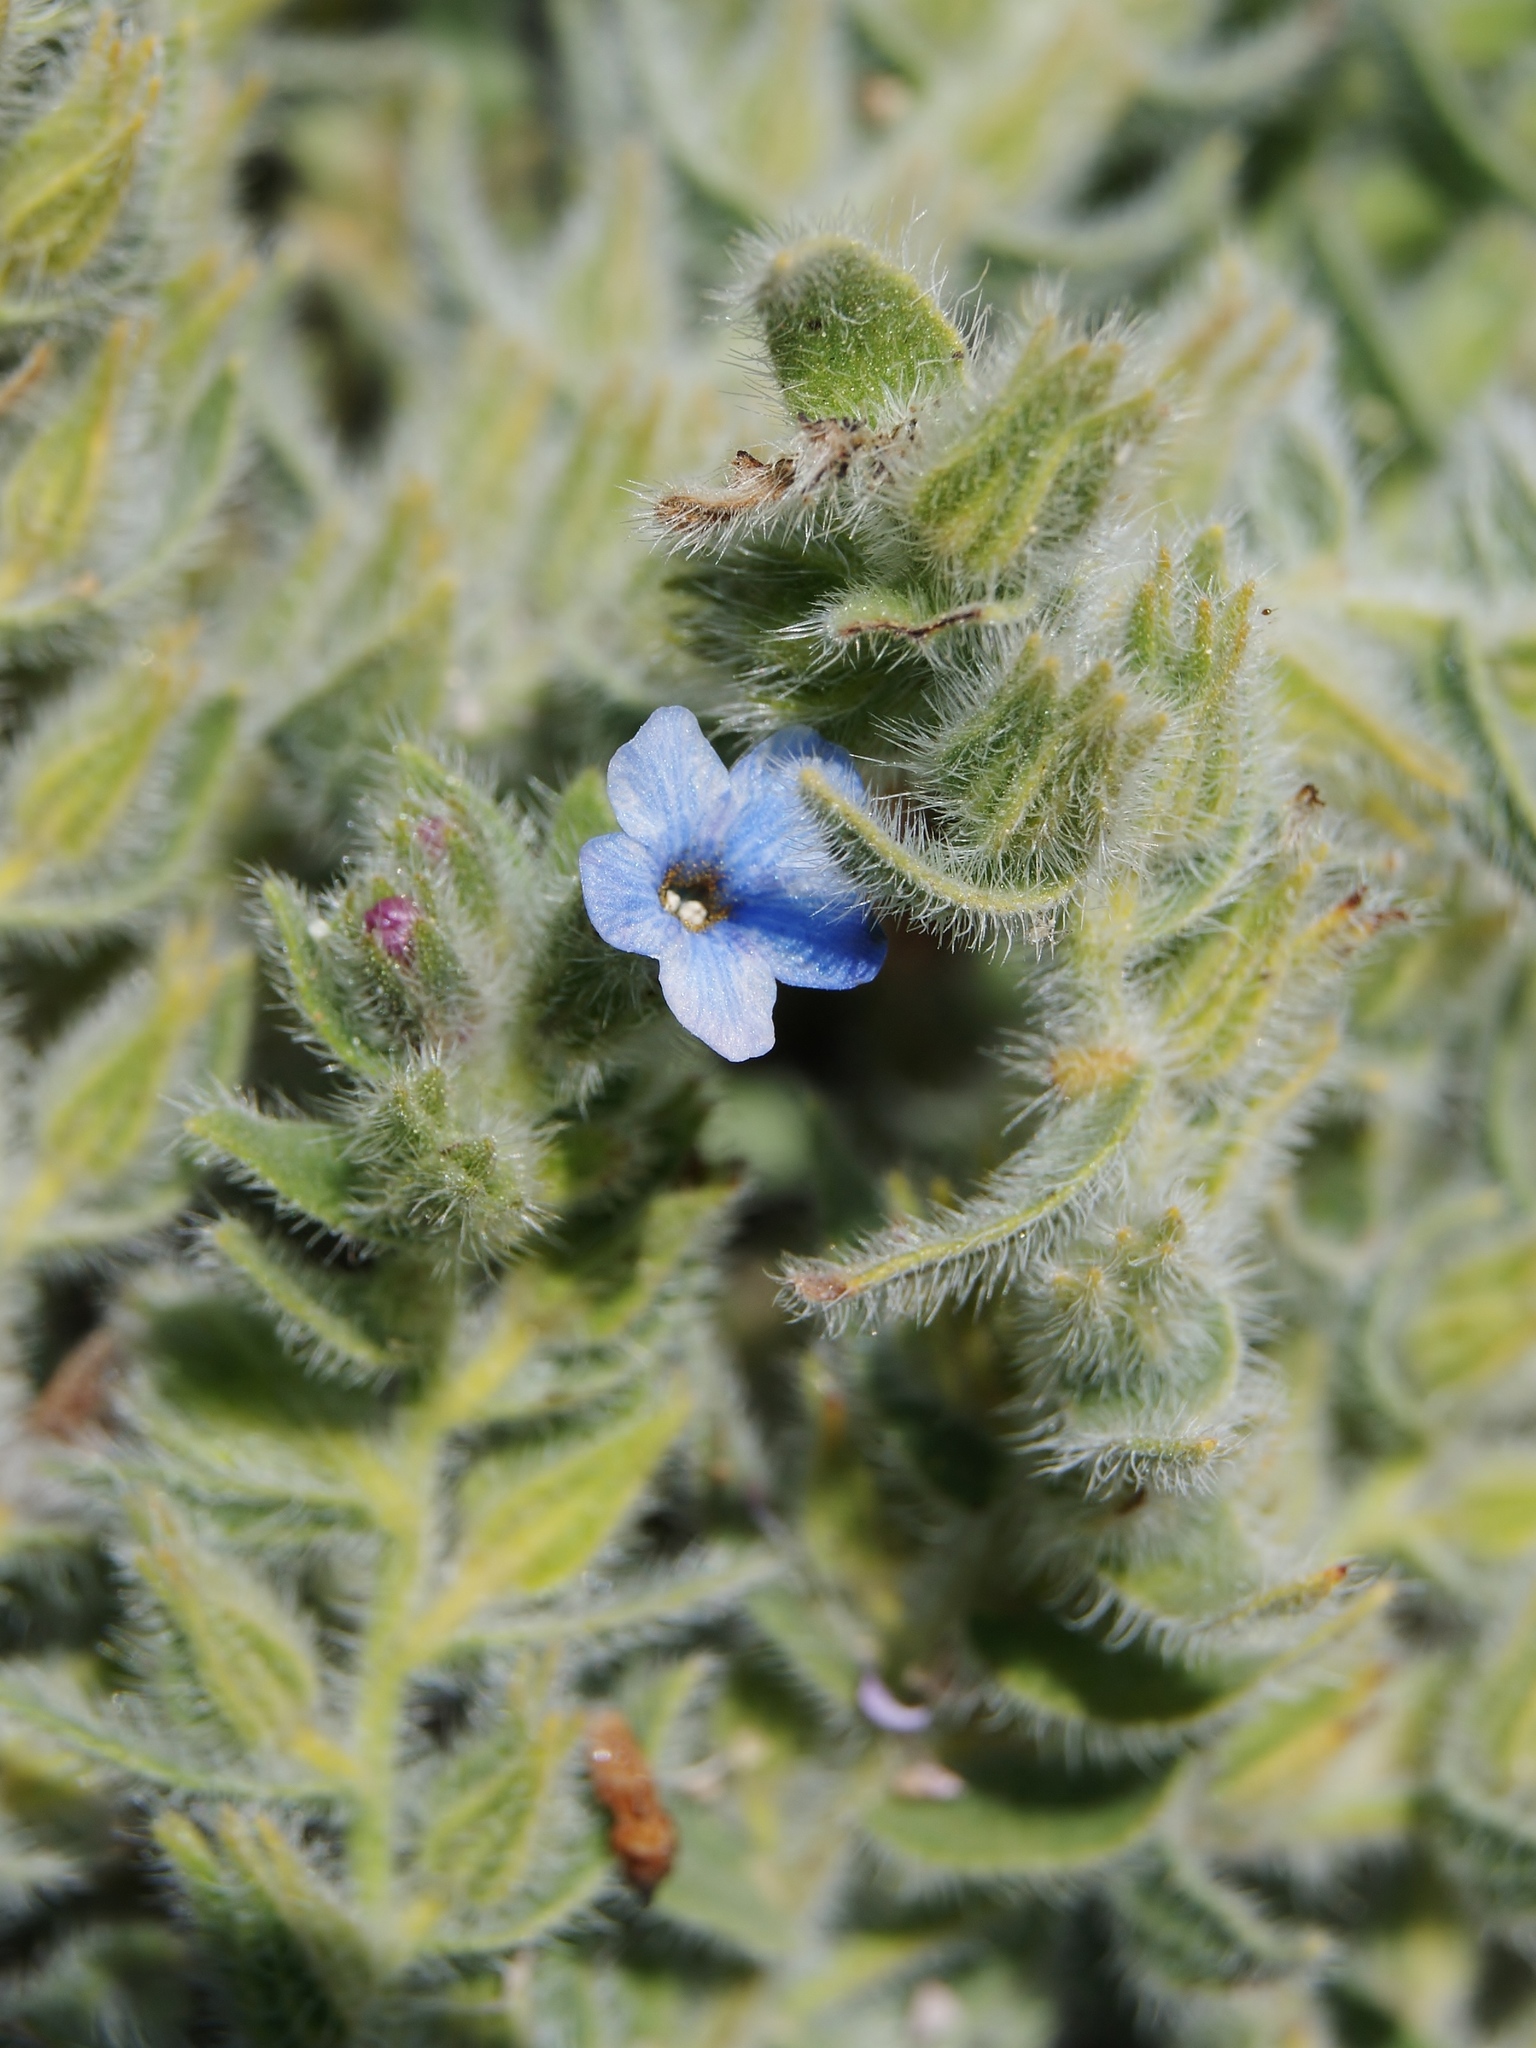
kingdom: Plantae
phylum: Tracheophyta
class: Magnoliopsida
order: Boraginales
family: Boraginaceae
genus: Alkanna
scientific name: Alkanna strigosa
